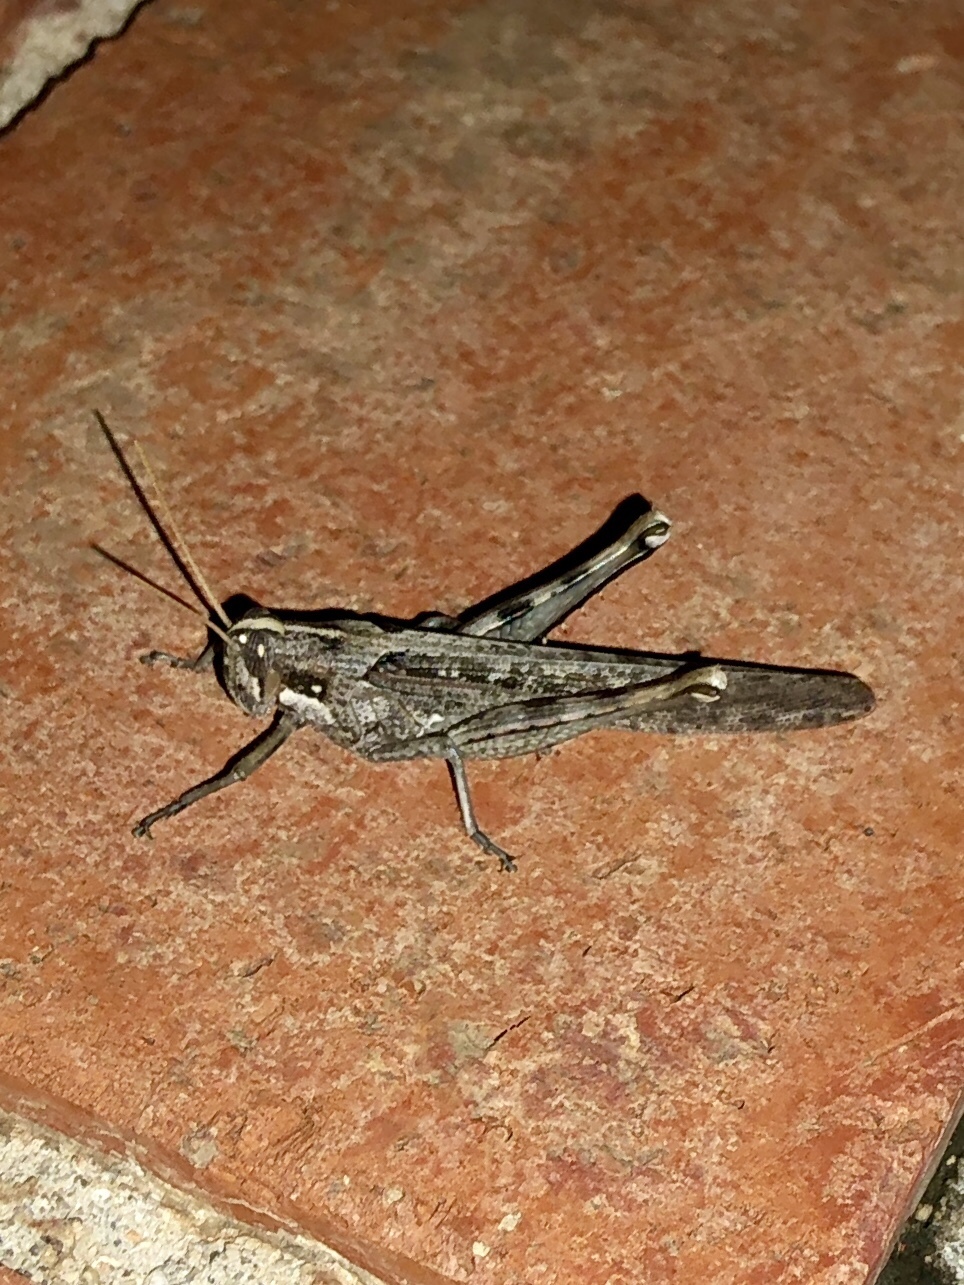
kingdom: Animalia
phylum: Arthropoda
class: Insecta
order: Orthoptera
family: Acrididae
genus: Schistocerca
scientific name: Schistocerca nitens
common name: Vagrant grasshopper
